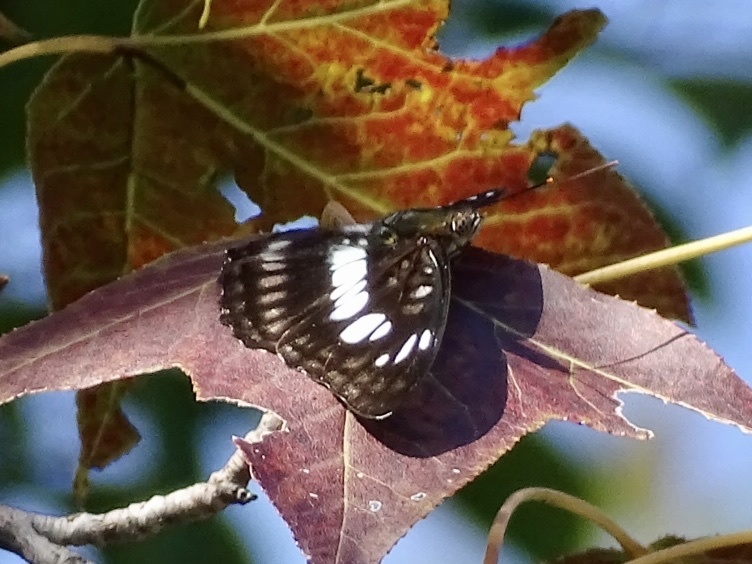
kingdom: Animalia
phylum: Arthropoda
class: Insecta
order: Lepidoptera
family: Nymphalidae
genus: Parathyma
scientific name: Parathyma selenophora
